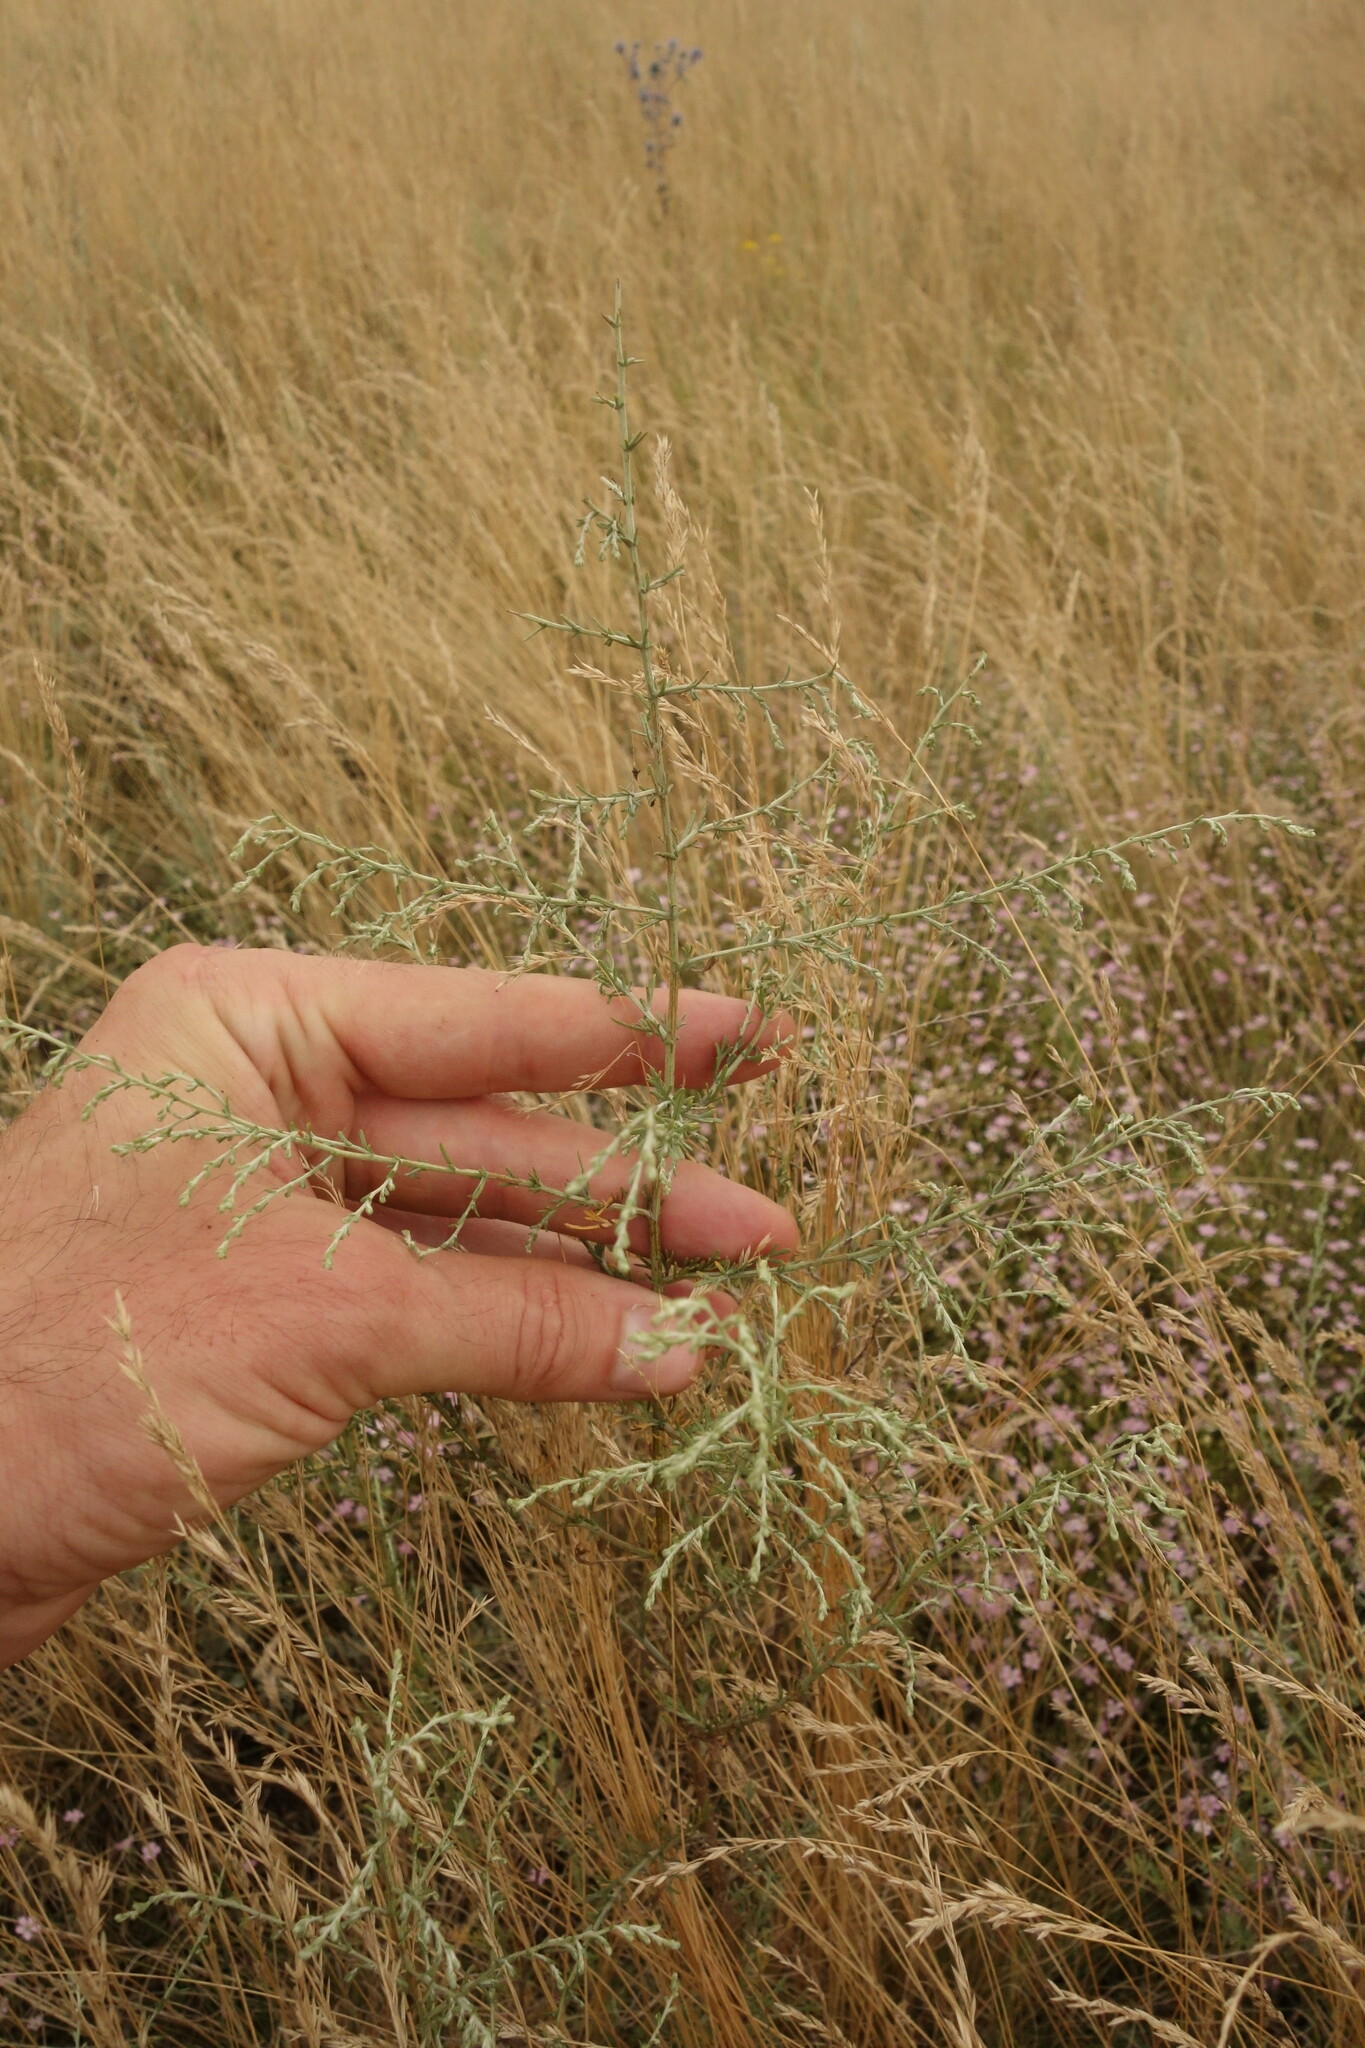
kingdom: Plantae
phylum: Tracheophyta
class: Magnoliopsida
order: Asterales
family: Asteraceae
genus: Artemisia
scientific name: Artemisia santonicum
